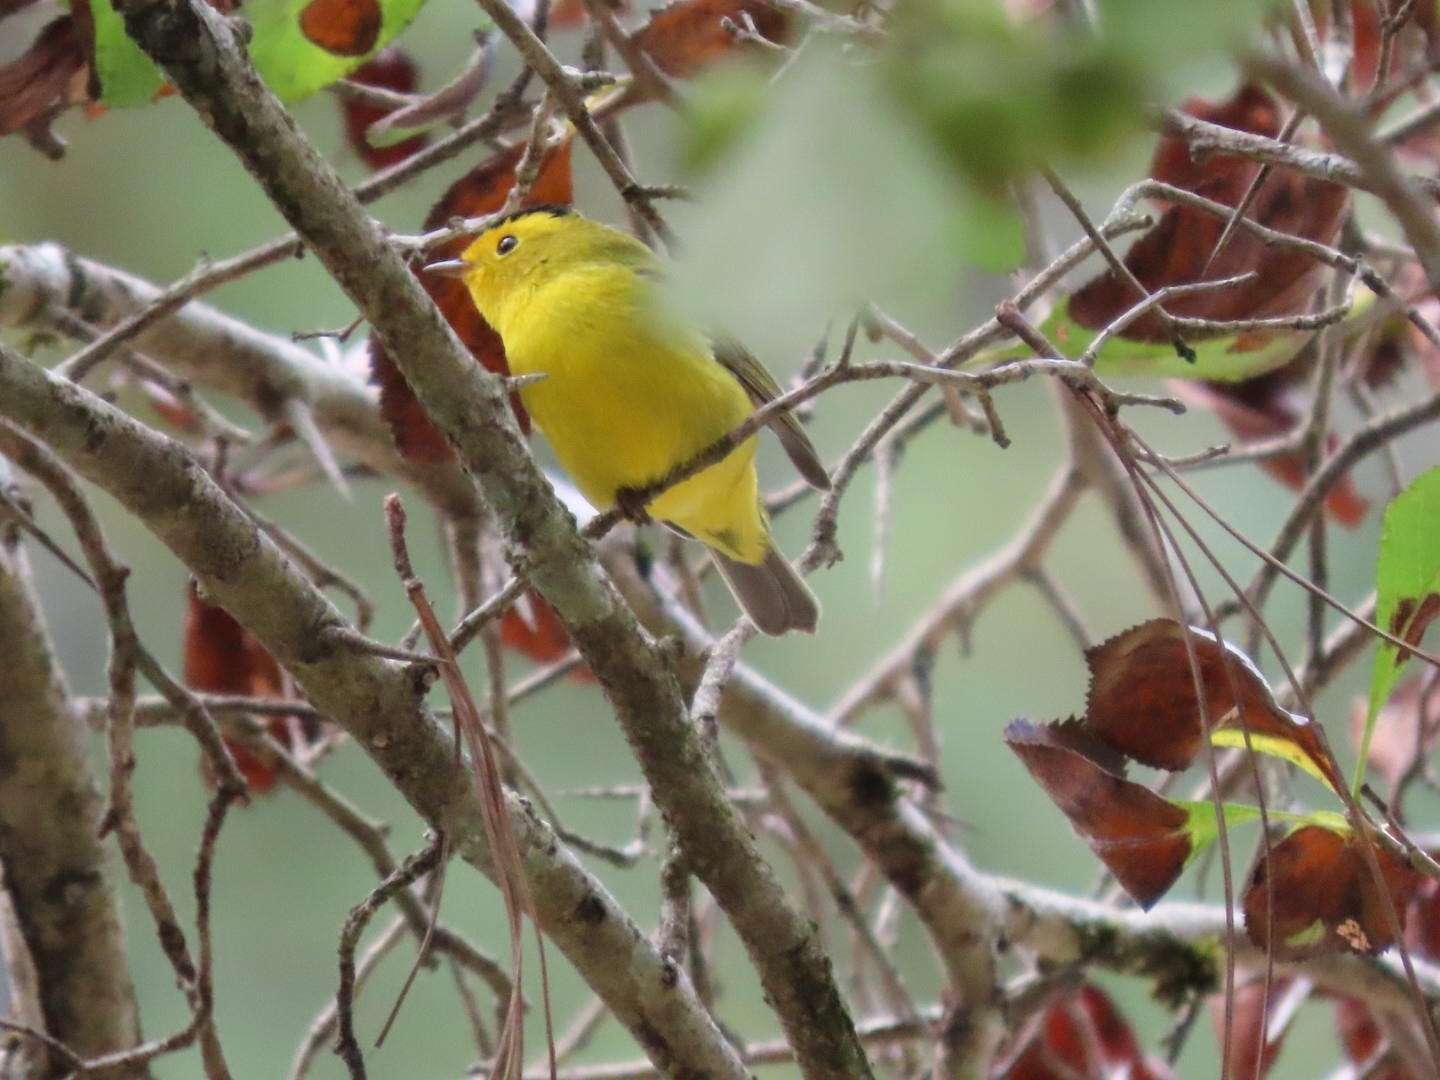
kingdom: Animalia
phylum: Chordata
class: Aves
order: Passeriformes
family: Parulidae
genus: Cardellina
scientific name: Cardellina pusilla
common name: Wilson's warbler
